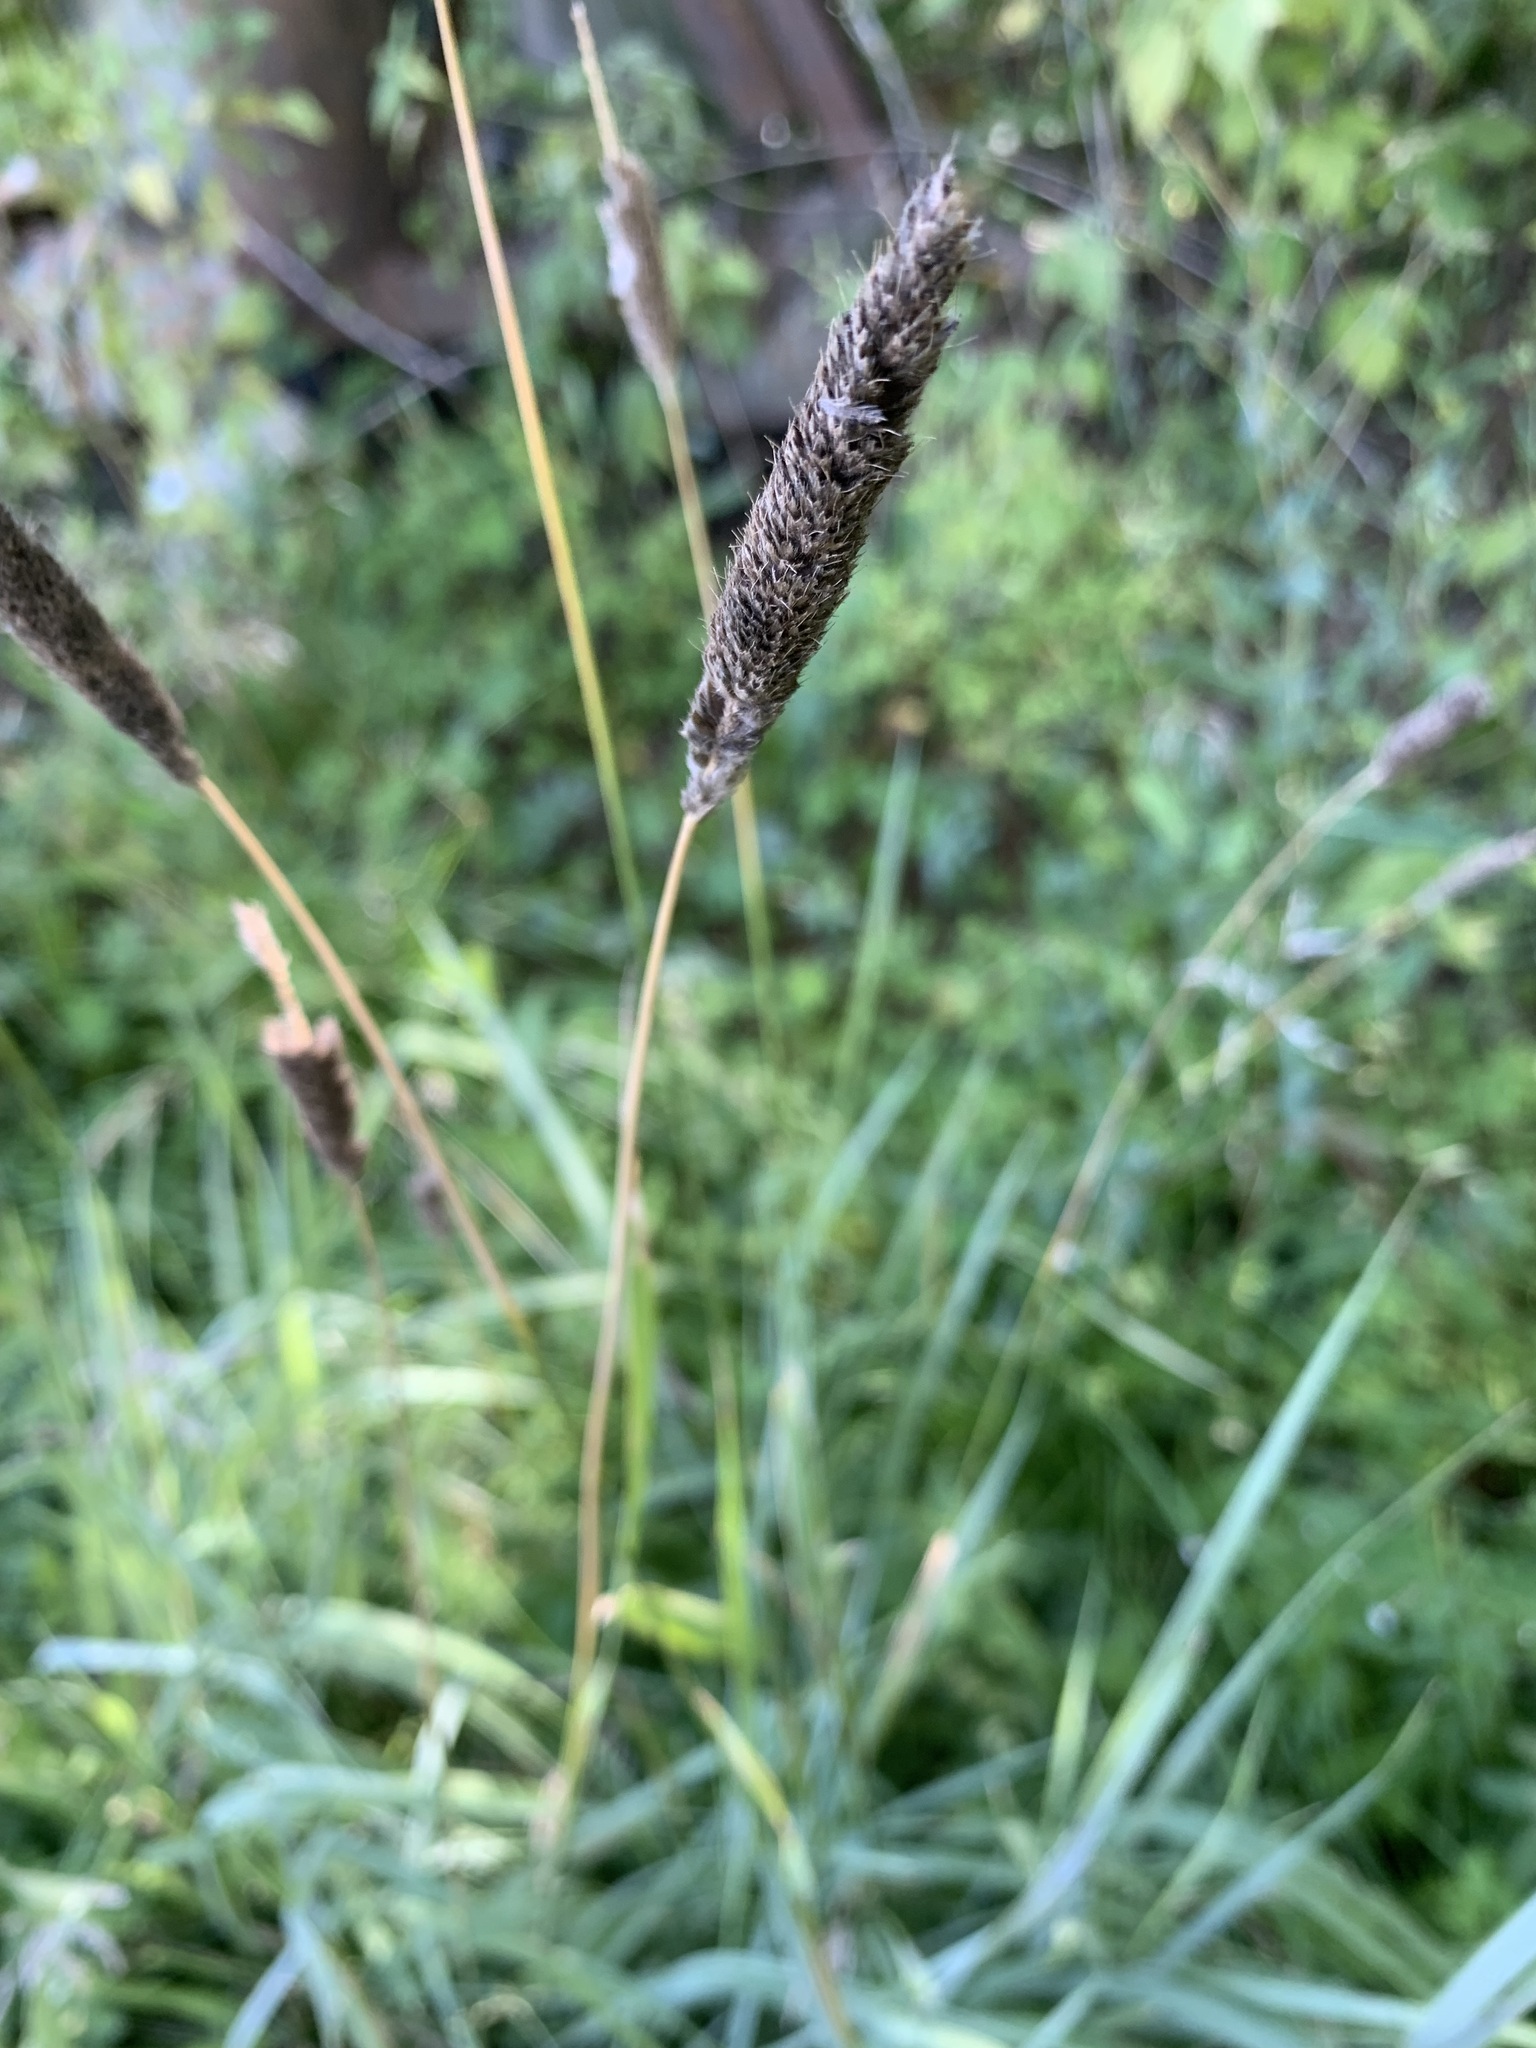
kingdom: Plantae
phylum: Tracheophyta
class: Liliopsida
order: Poales
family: Poaceae
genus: Alopecurus
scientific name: Alopecurus arundinaceus
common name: Creeping meadow foxtail
